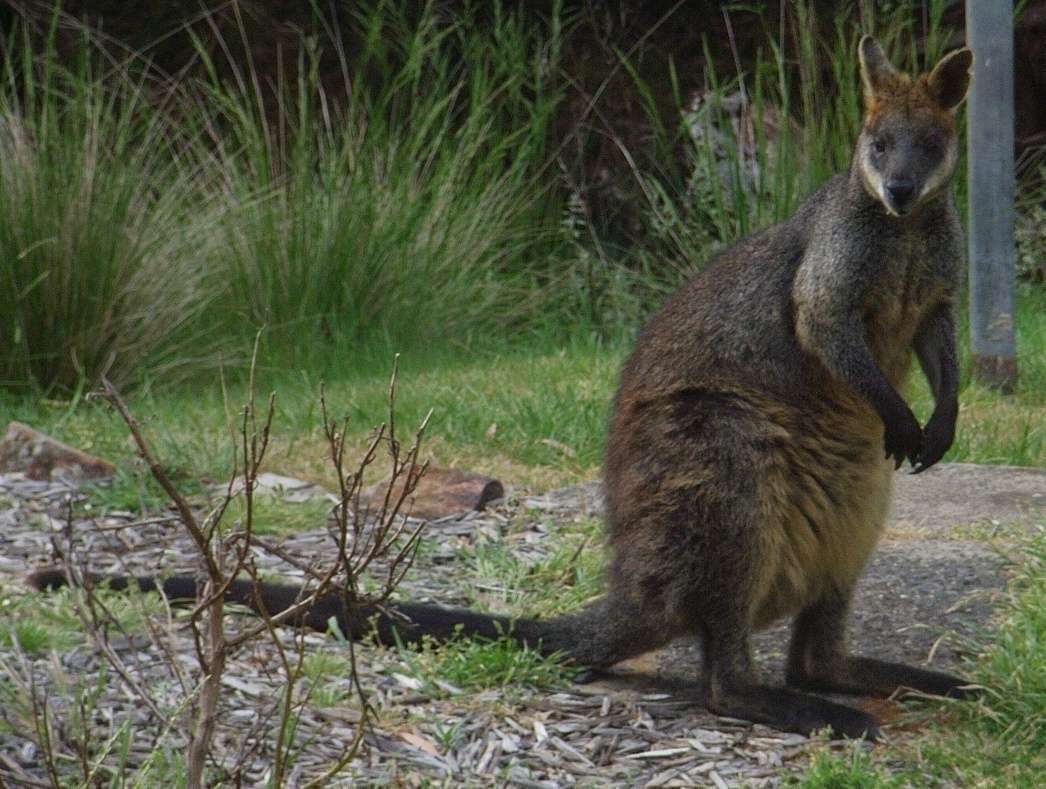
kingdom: Animalia
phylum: Chordata
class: Mammalia
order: Diprotodontia
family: Macropodidae
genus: Wallabia
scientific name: Wallabia bicolor
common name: Swamp wallaby
